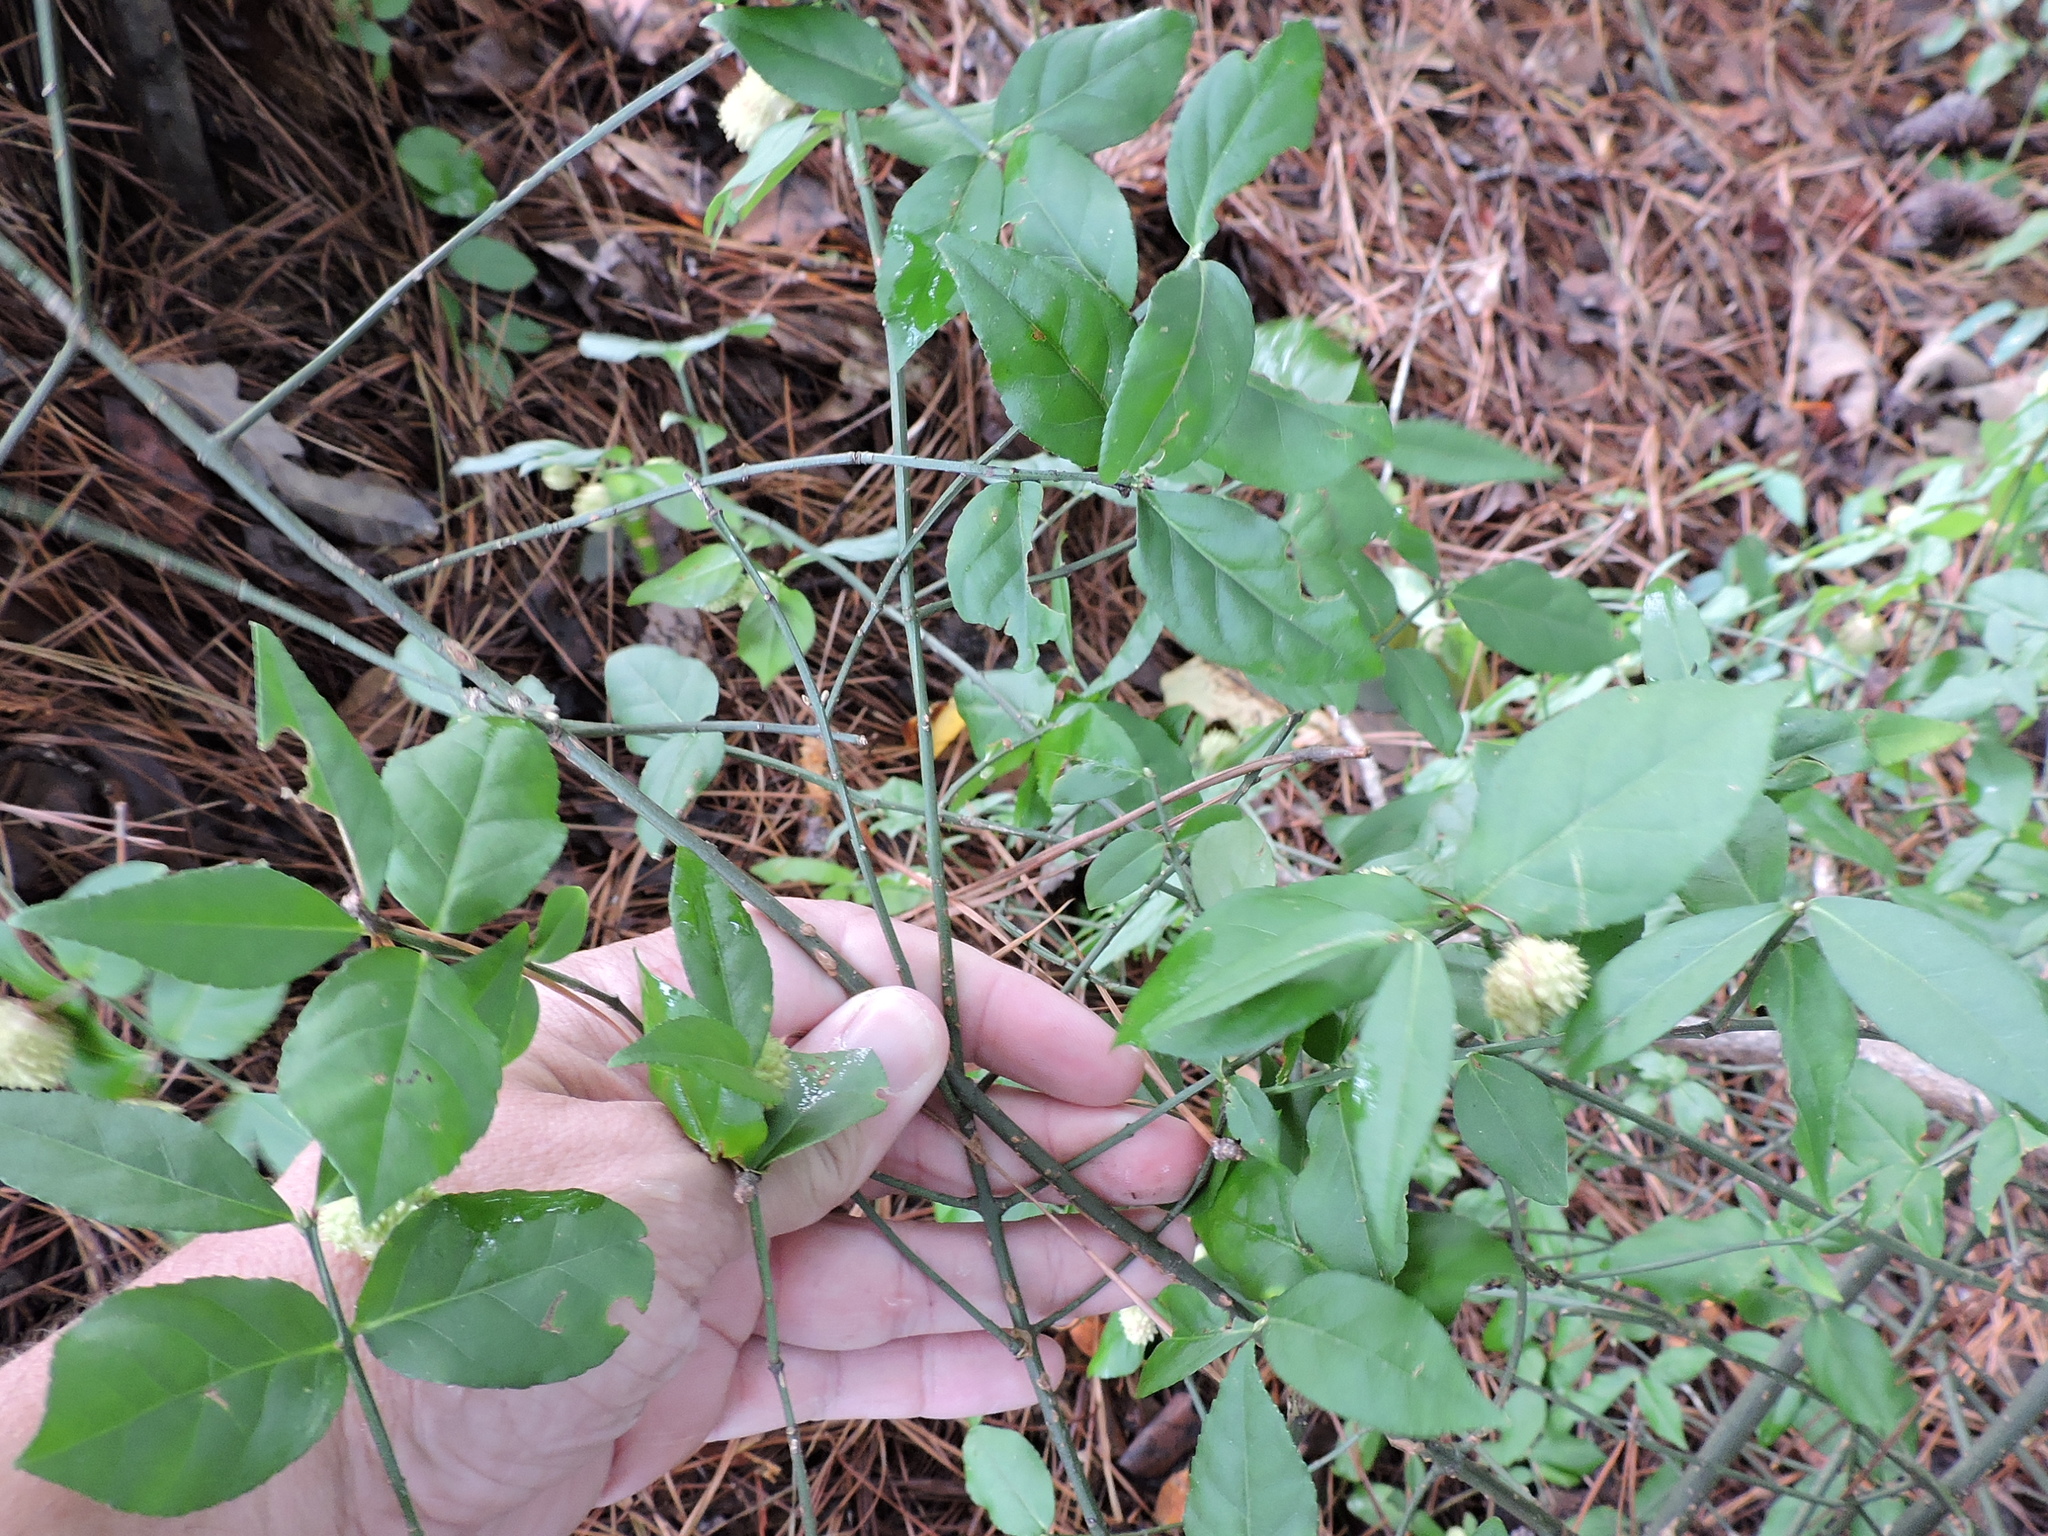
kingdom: Plantae
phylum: Tracheophyta
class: Magnoliopsida
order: Celastrales
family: Celastraceae
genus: Euonymus
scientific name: Euonymus americanus
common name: Bursting-heart
